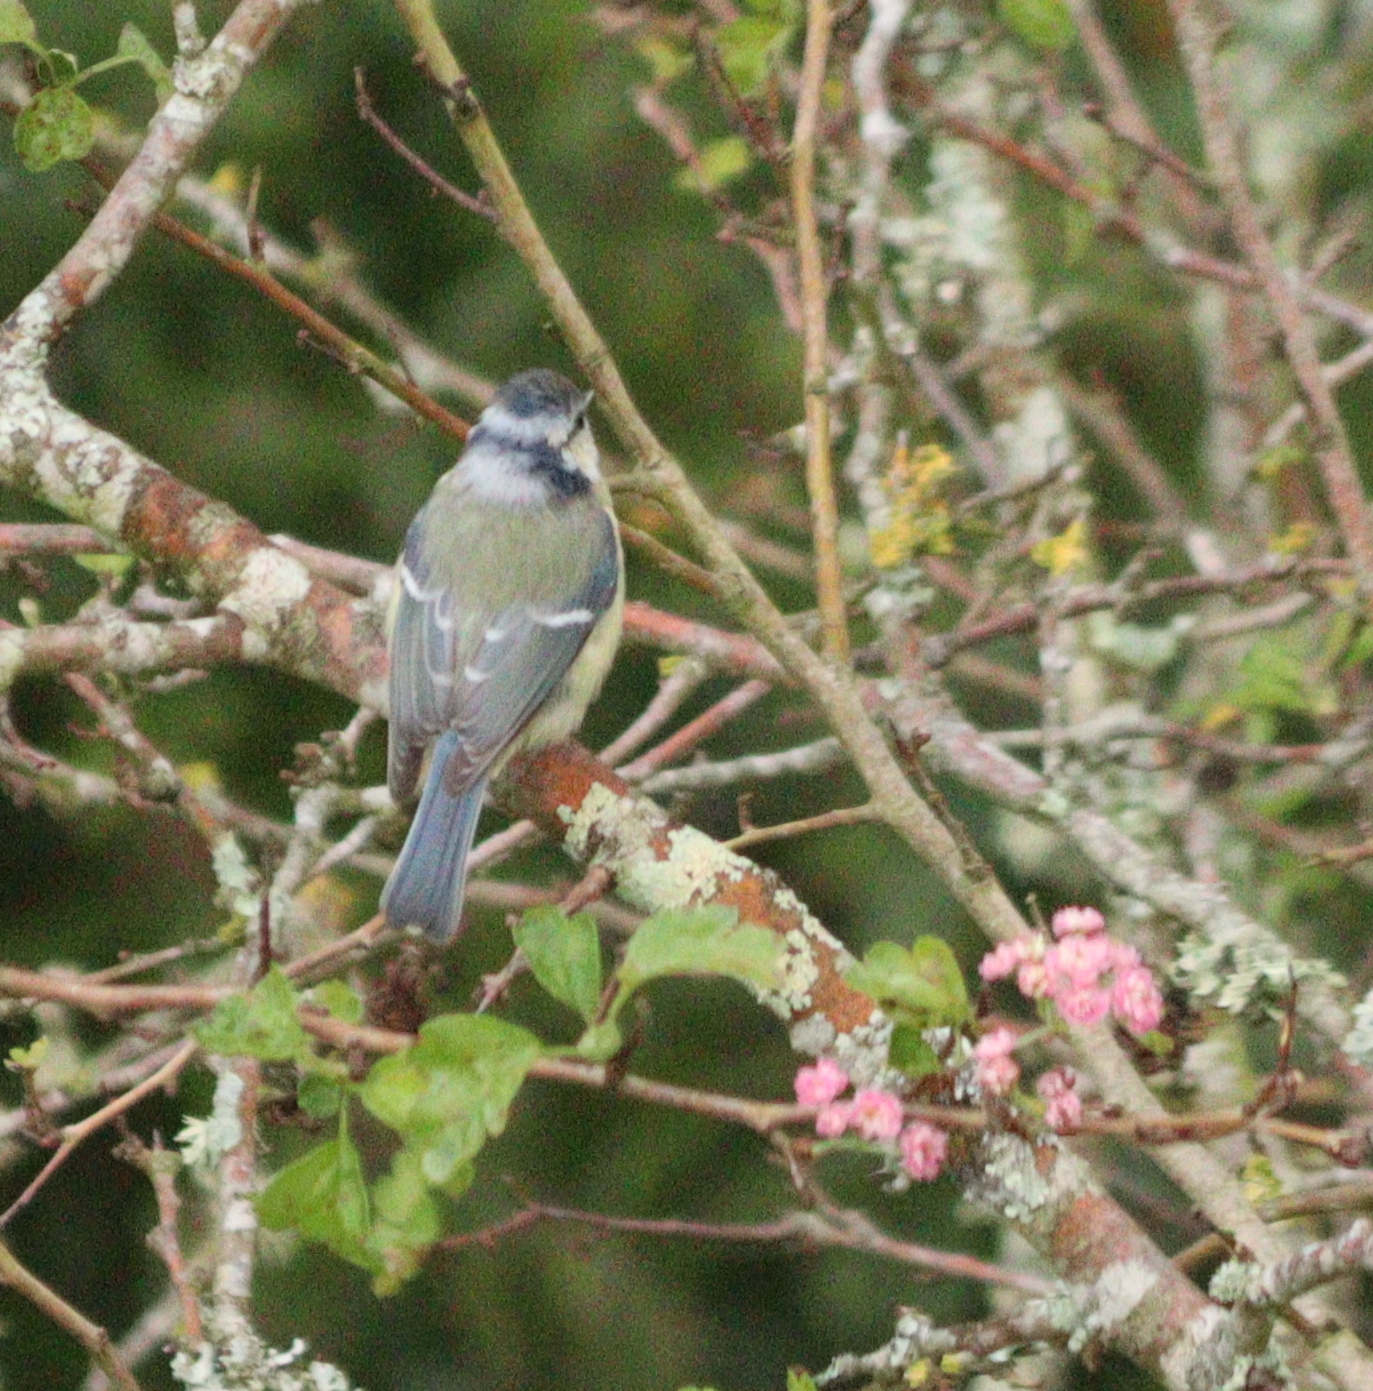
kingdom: Animalia
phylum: Chordata
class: Aves
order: Passeriformes
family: Paridae
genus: Cyanistes
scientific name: Cyanistes caeruleus
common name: Eurasian blue tit
